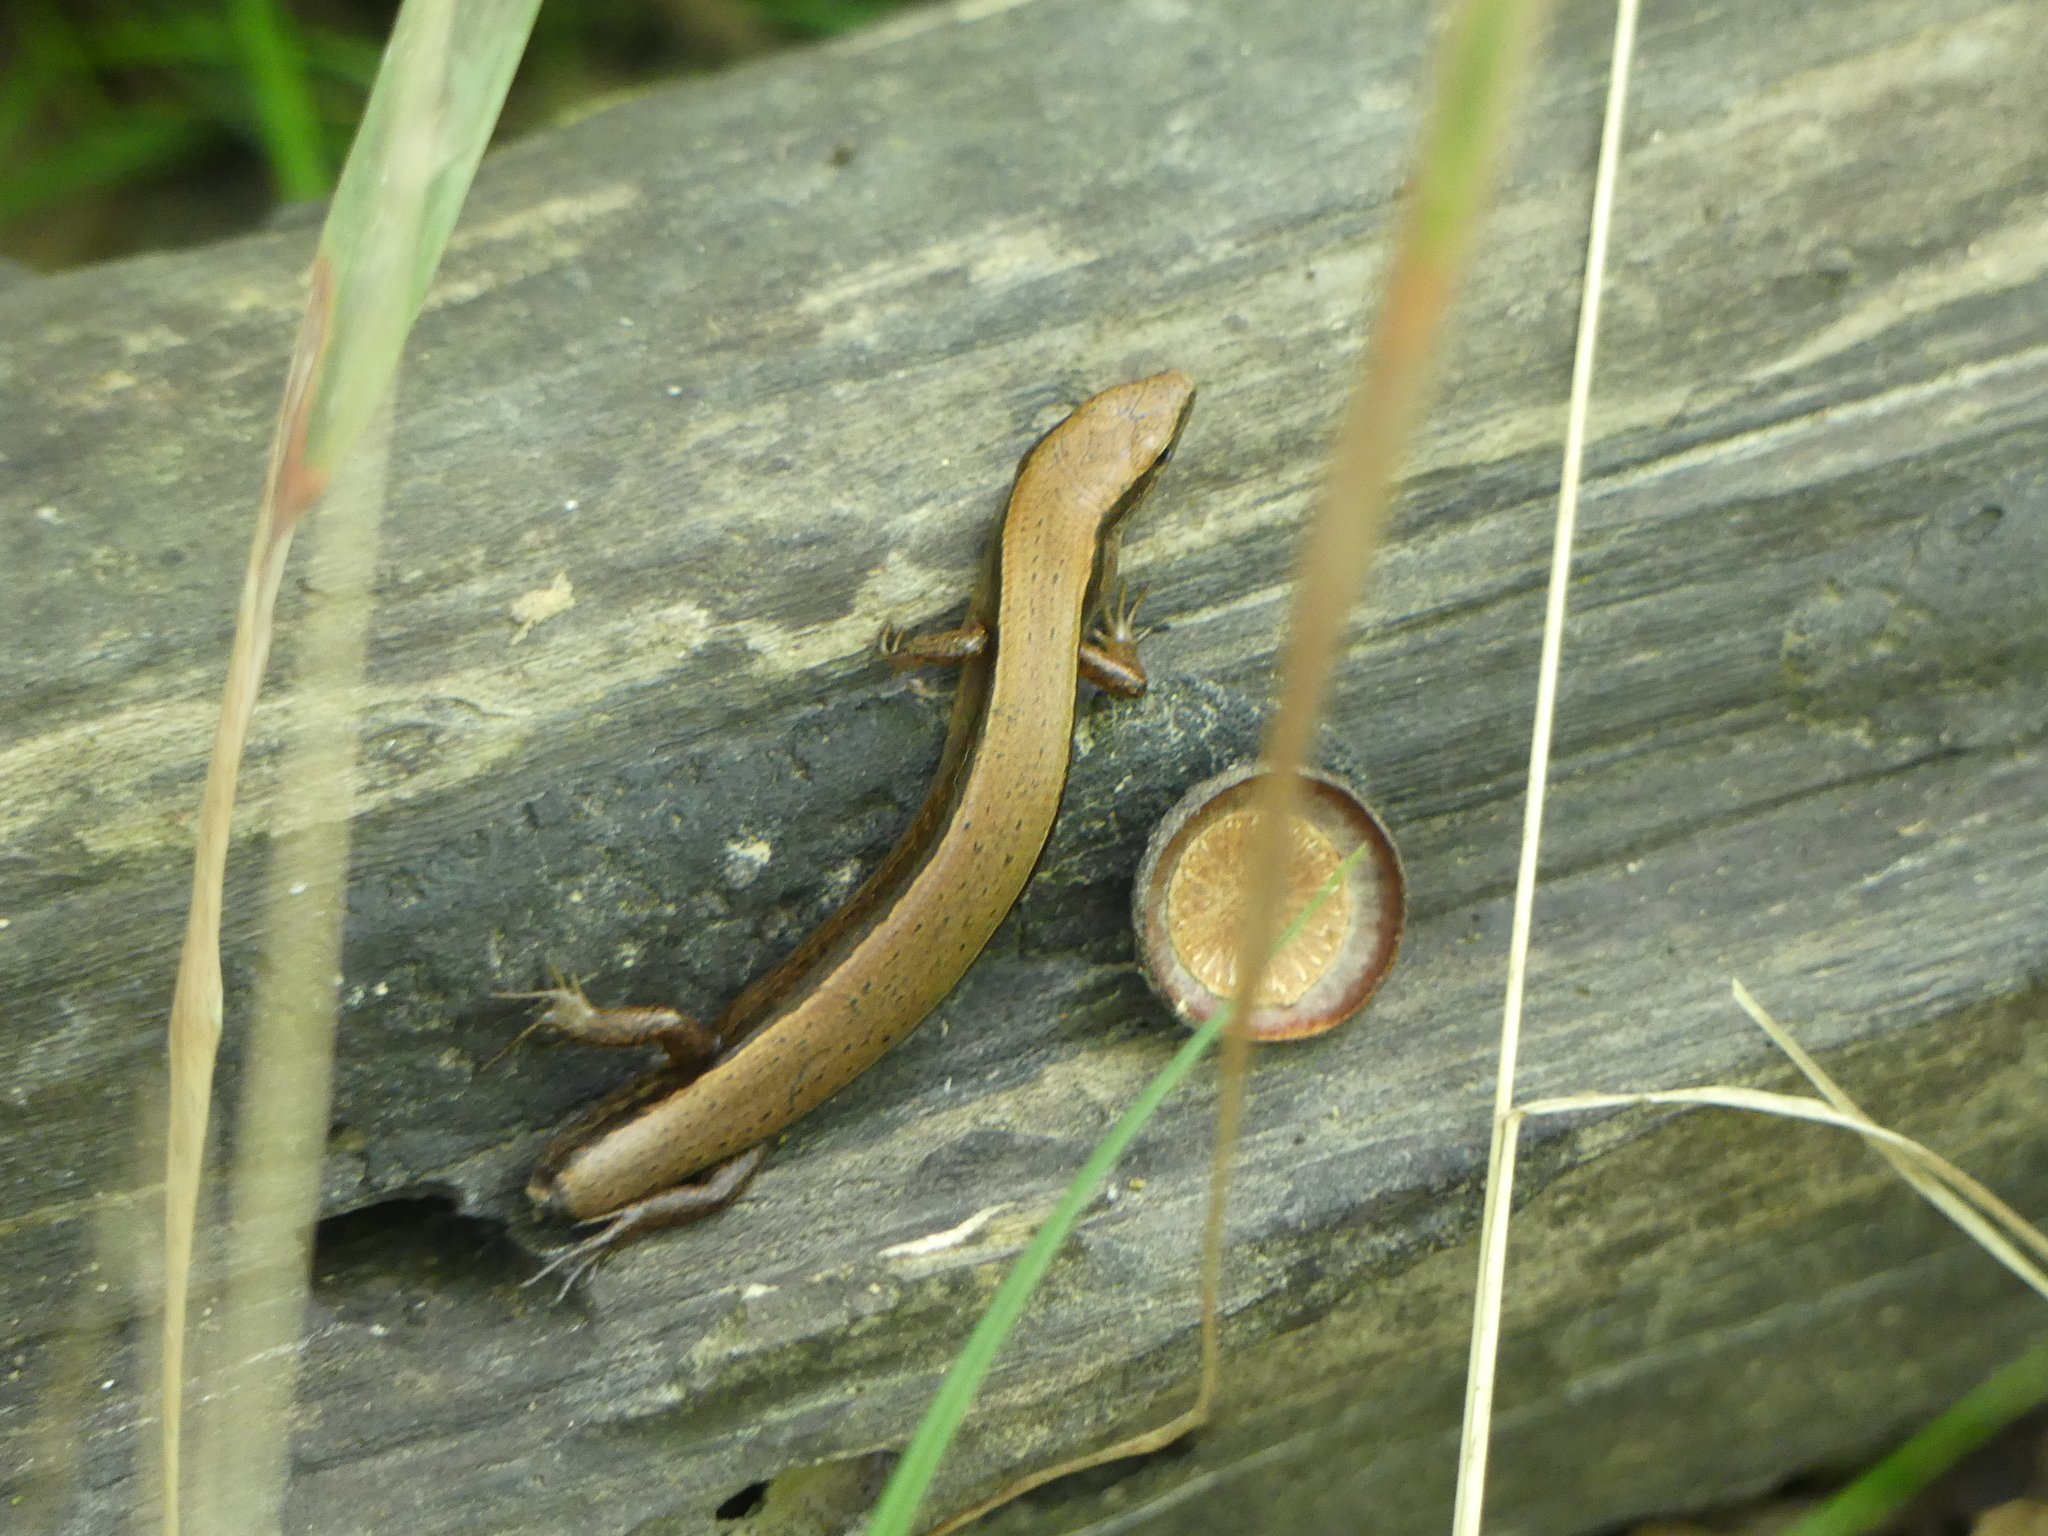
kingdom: Animalia
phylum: Chordata
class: Squamata
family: Scincidae
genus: Scincella
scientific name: Scincella lateralis
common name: Ground skink
